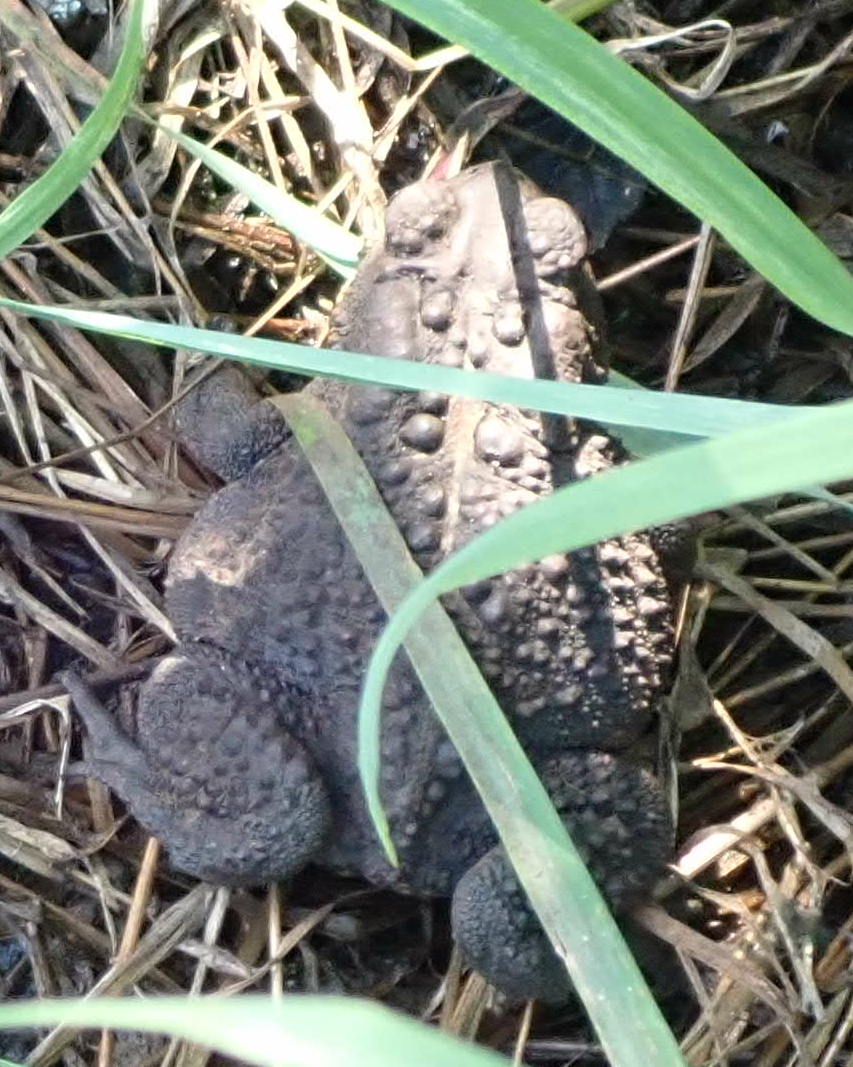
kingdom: Animalia
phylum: Chordata
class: Amphibia
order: Anura
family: Bufonidae
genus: Anaxyrus
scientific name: Anaxyrus americanus
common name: American toad
